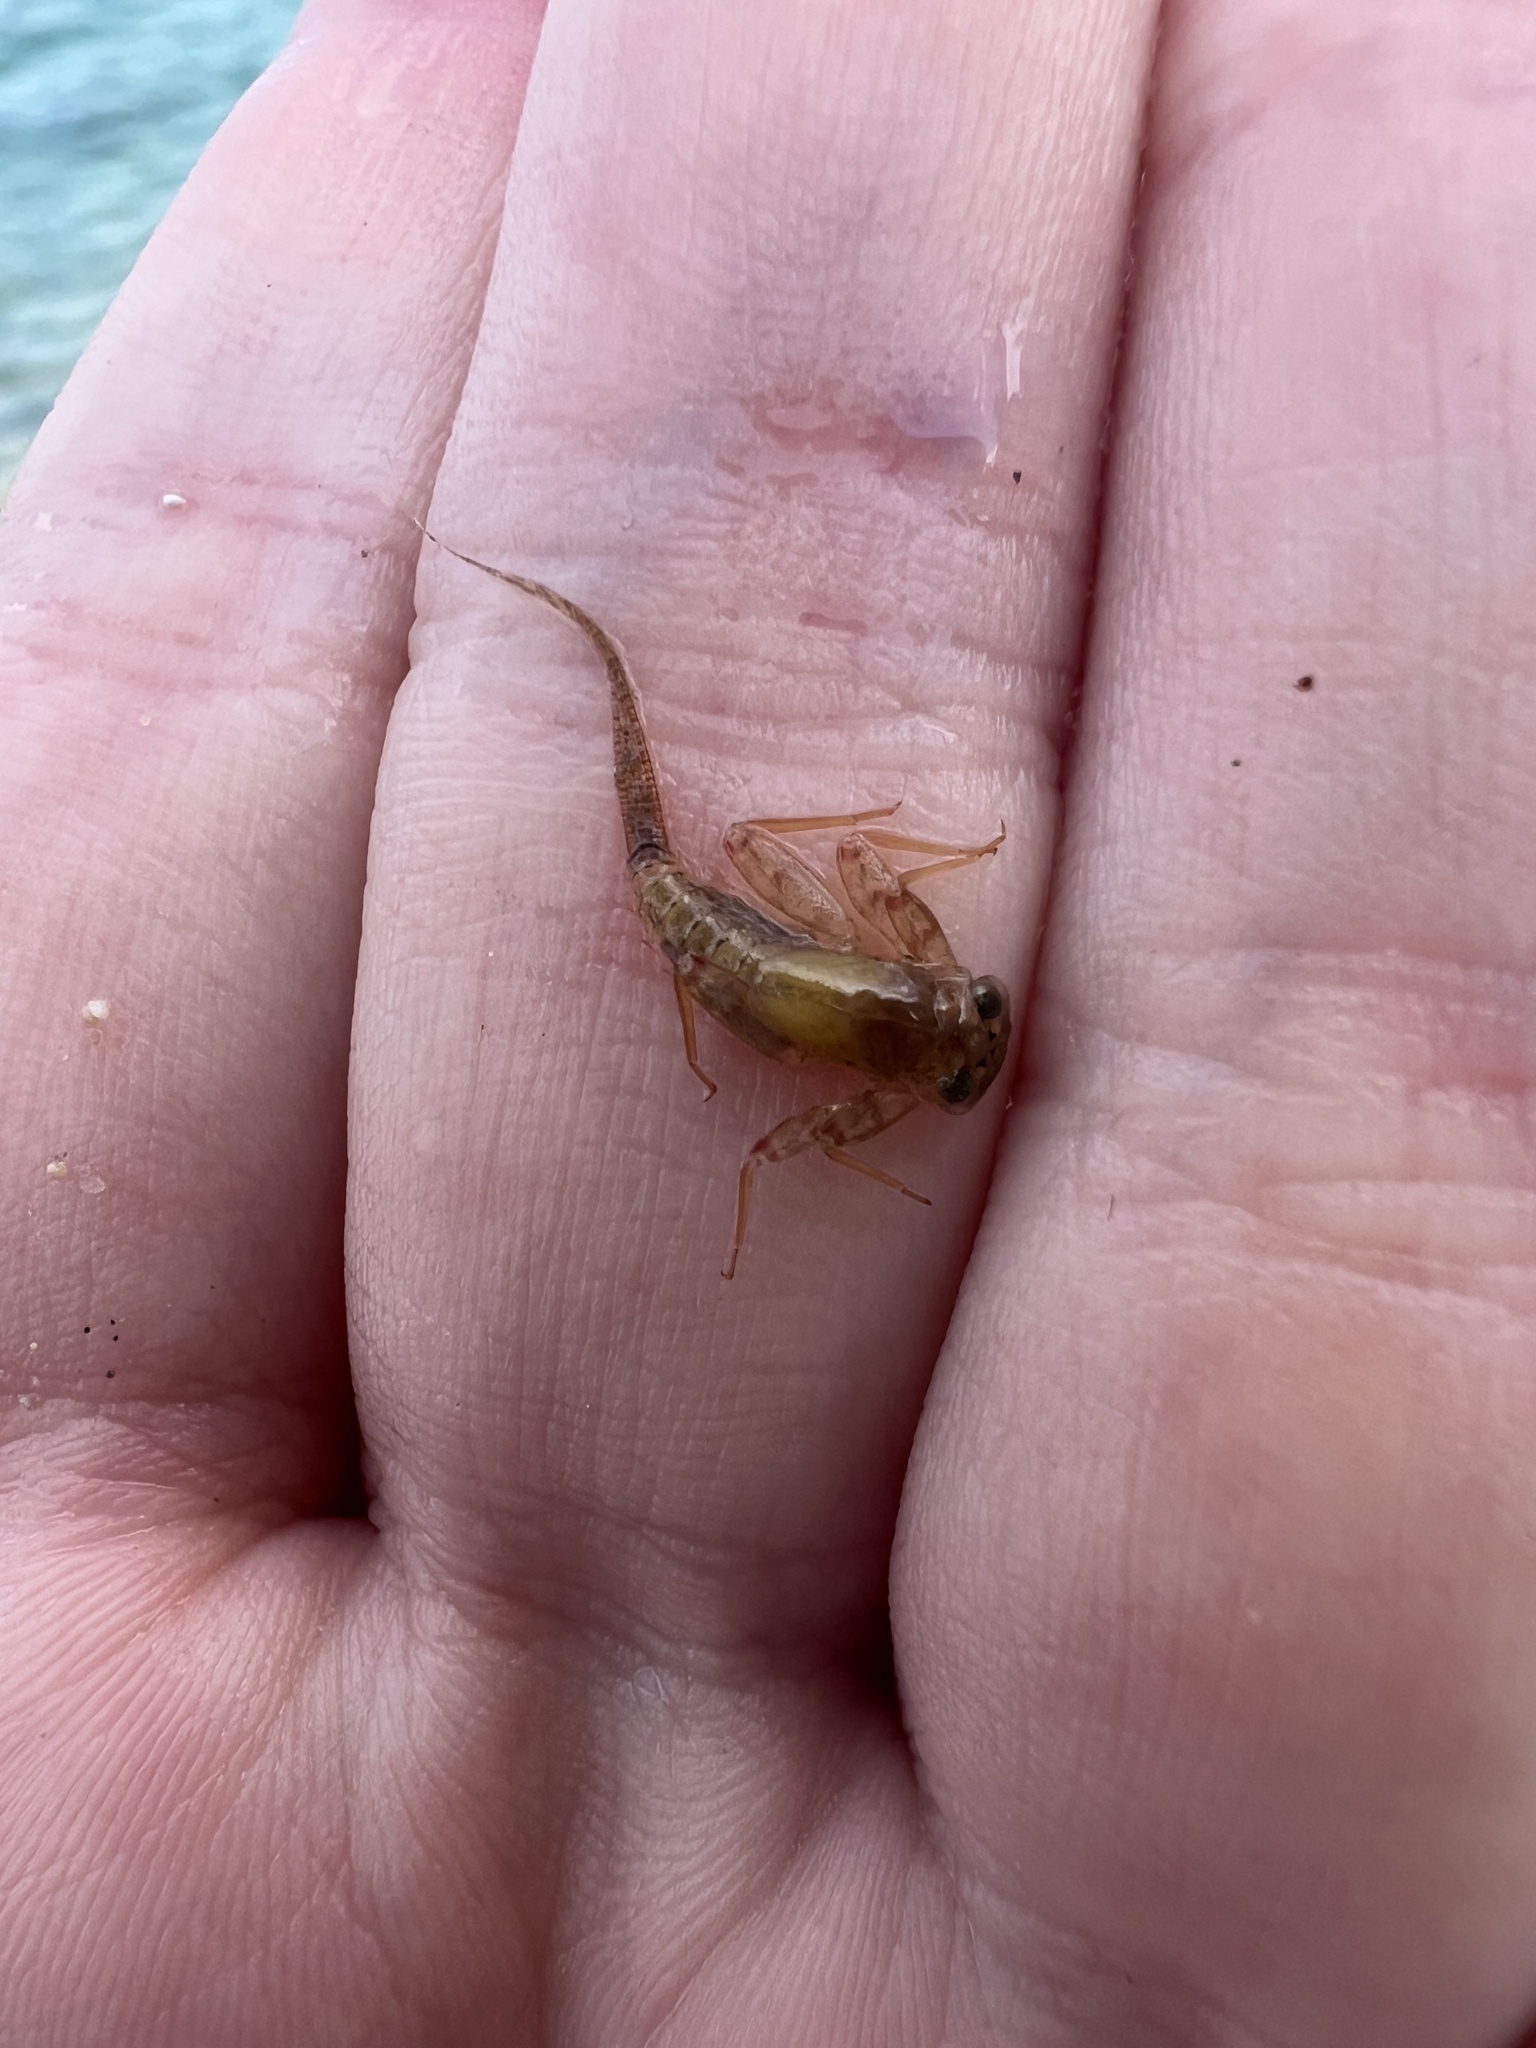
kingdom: Animalia
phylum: Arthropoda
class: Insecta
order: Ephemeroptera
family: Heptageniidae
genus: Maccaffertium
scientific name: Maccaffertium mediopunctatum
